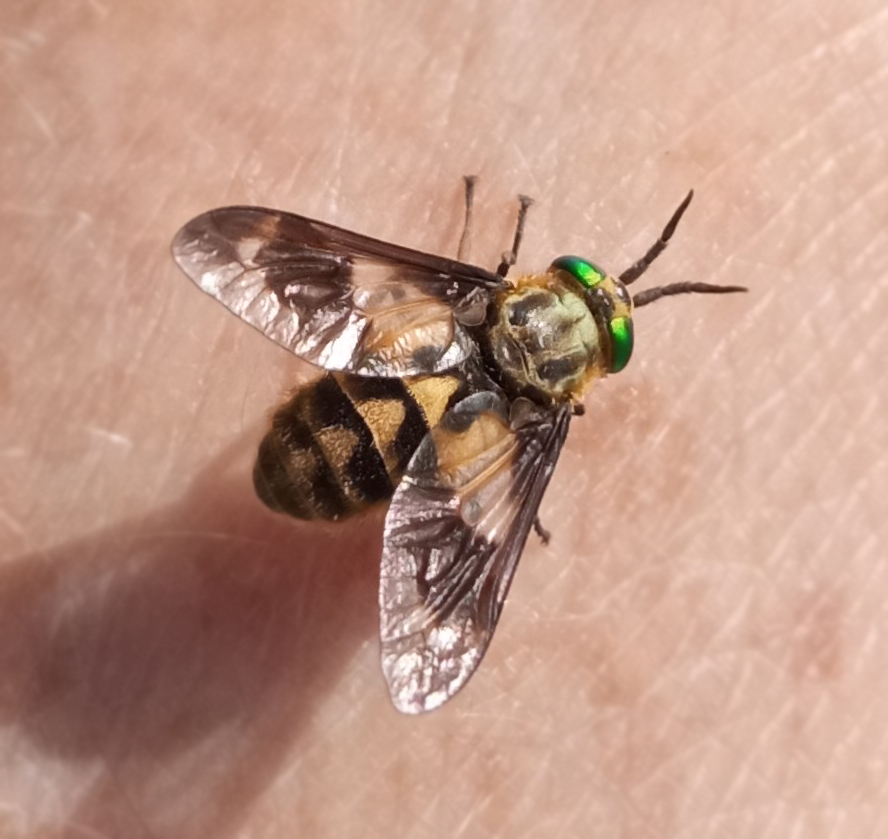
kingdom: Animalia
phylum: Arthropoda
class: Insecta
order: Diptera
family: Tabanidae
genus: Chrysops
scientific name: Chrysops relictus
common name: Twin-lobed deerfly
